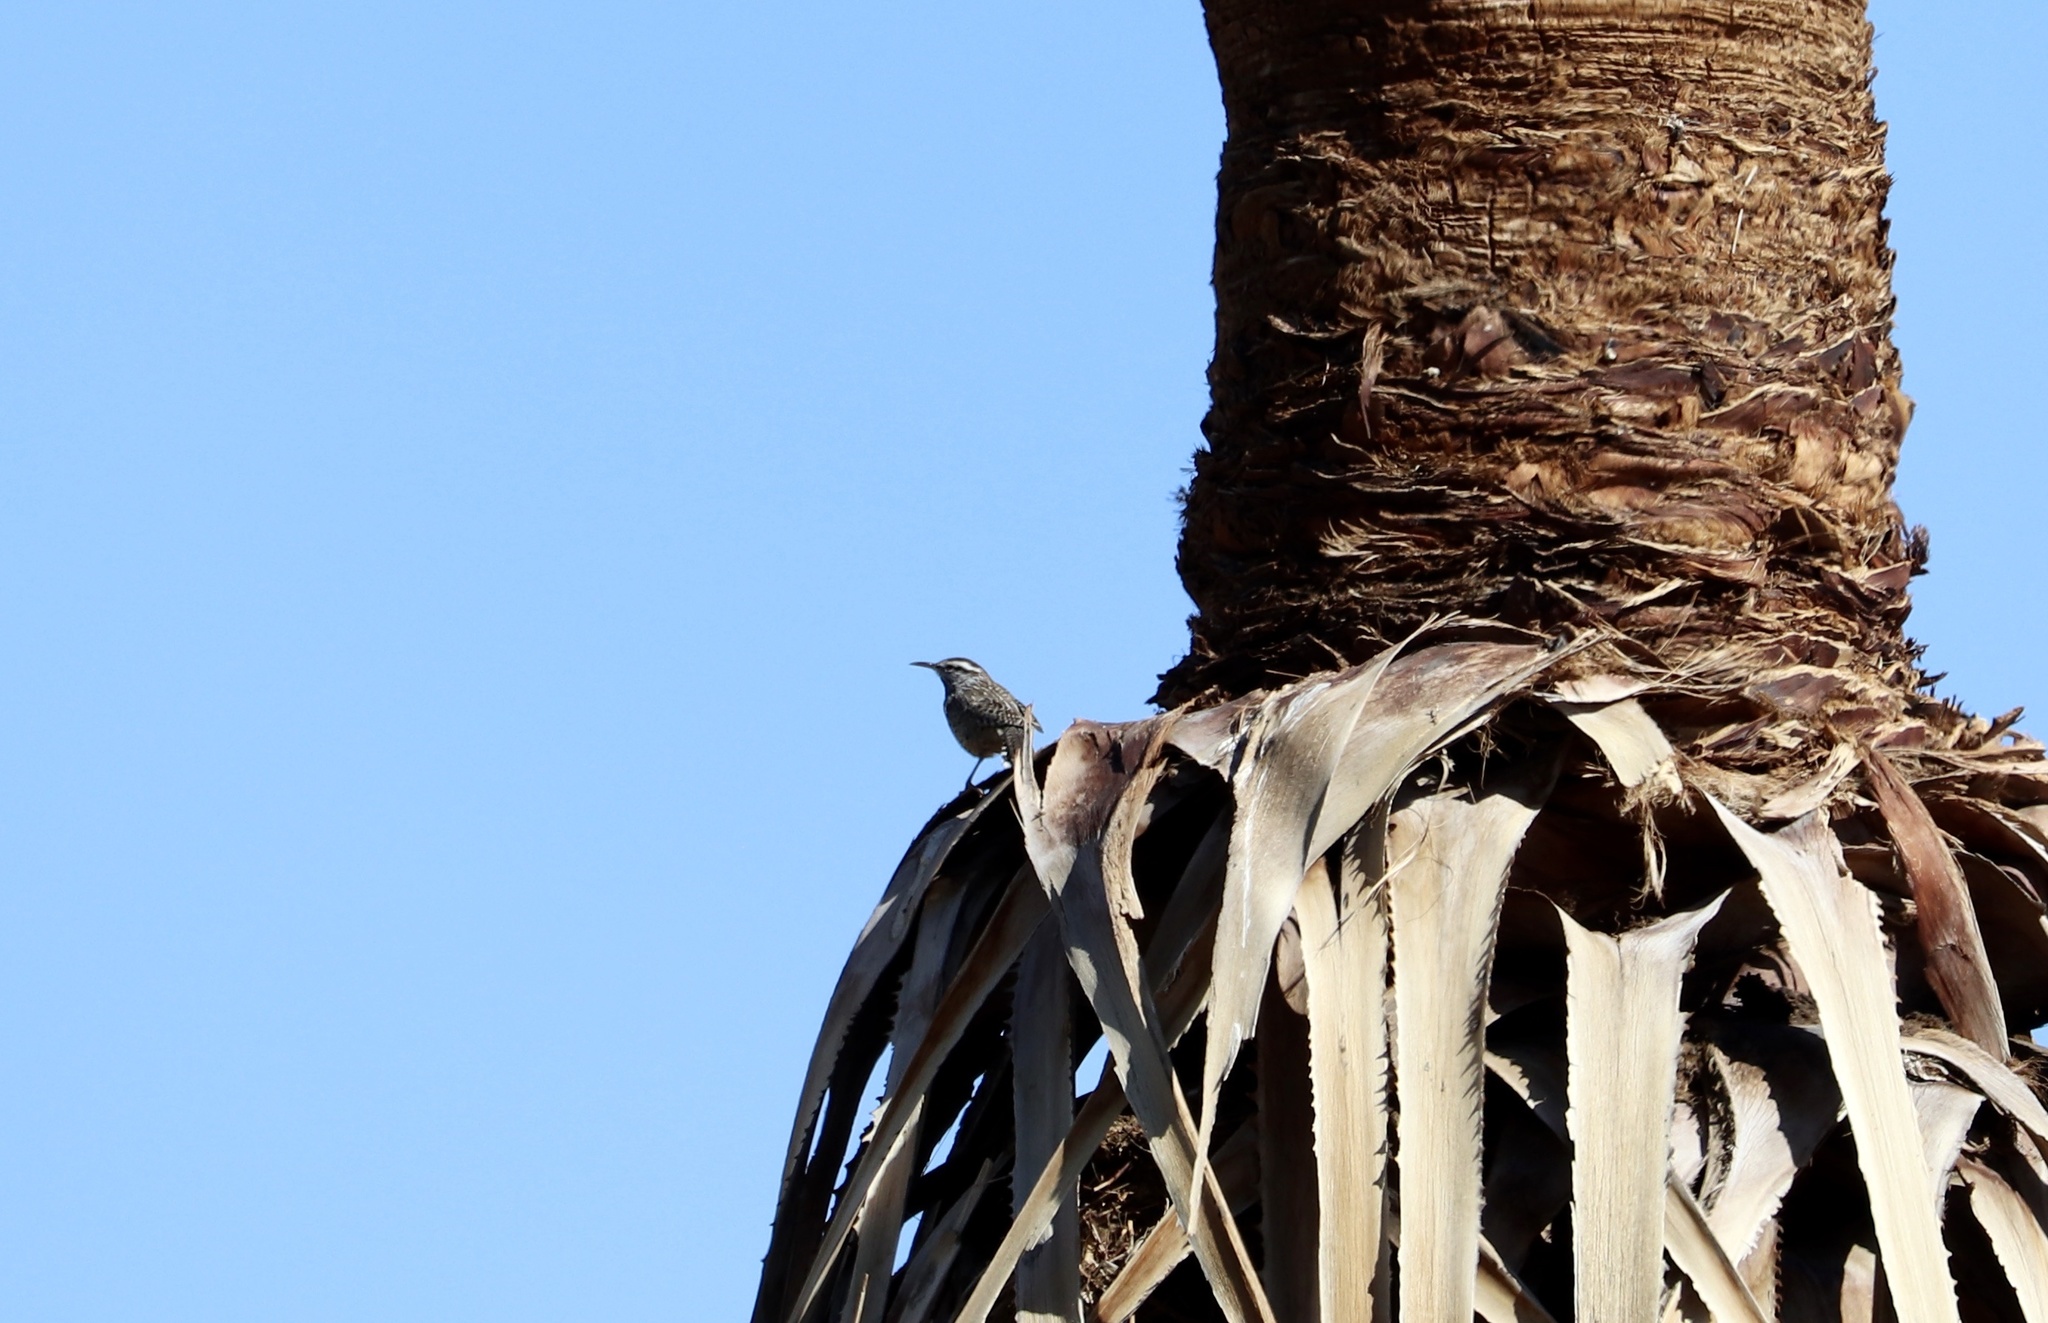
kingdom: Animalia
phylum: Chordata
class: Aves
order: Passeriformes
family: Troglodytidae
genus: Campylorhynchus
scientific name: Campylorhynchus brunneicapillus
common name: Cactus wren
